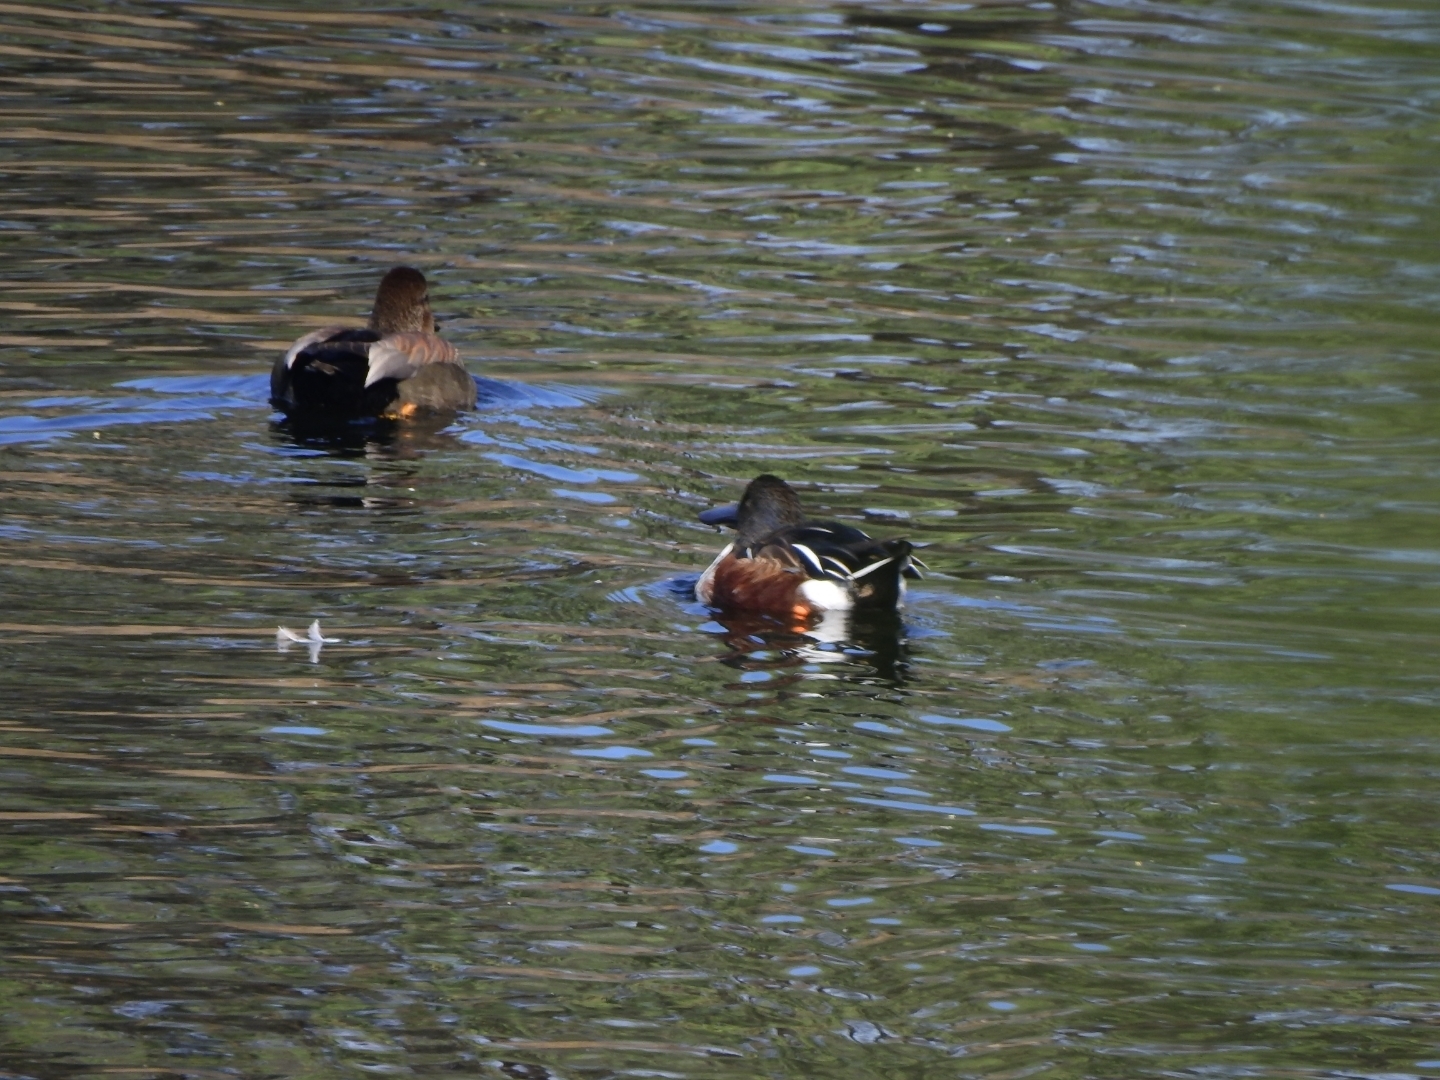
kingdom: Animalia
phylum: Chordata
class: Aves
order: Anseriformes
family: Anatidae
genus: Spatula
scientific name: Spatula clypeata
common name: Northern shoveler
